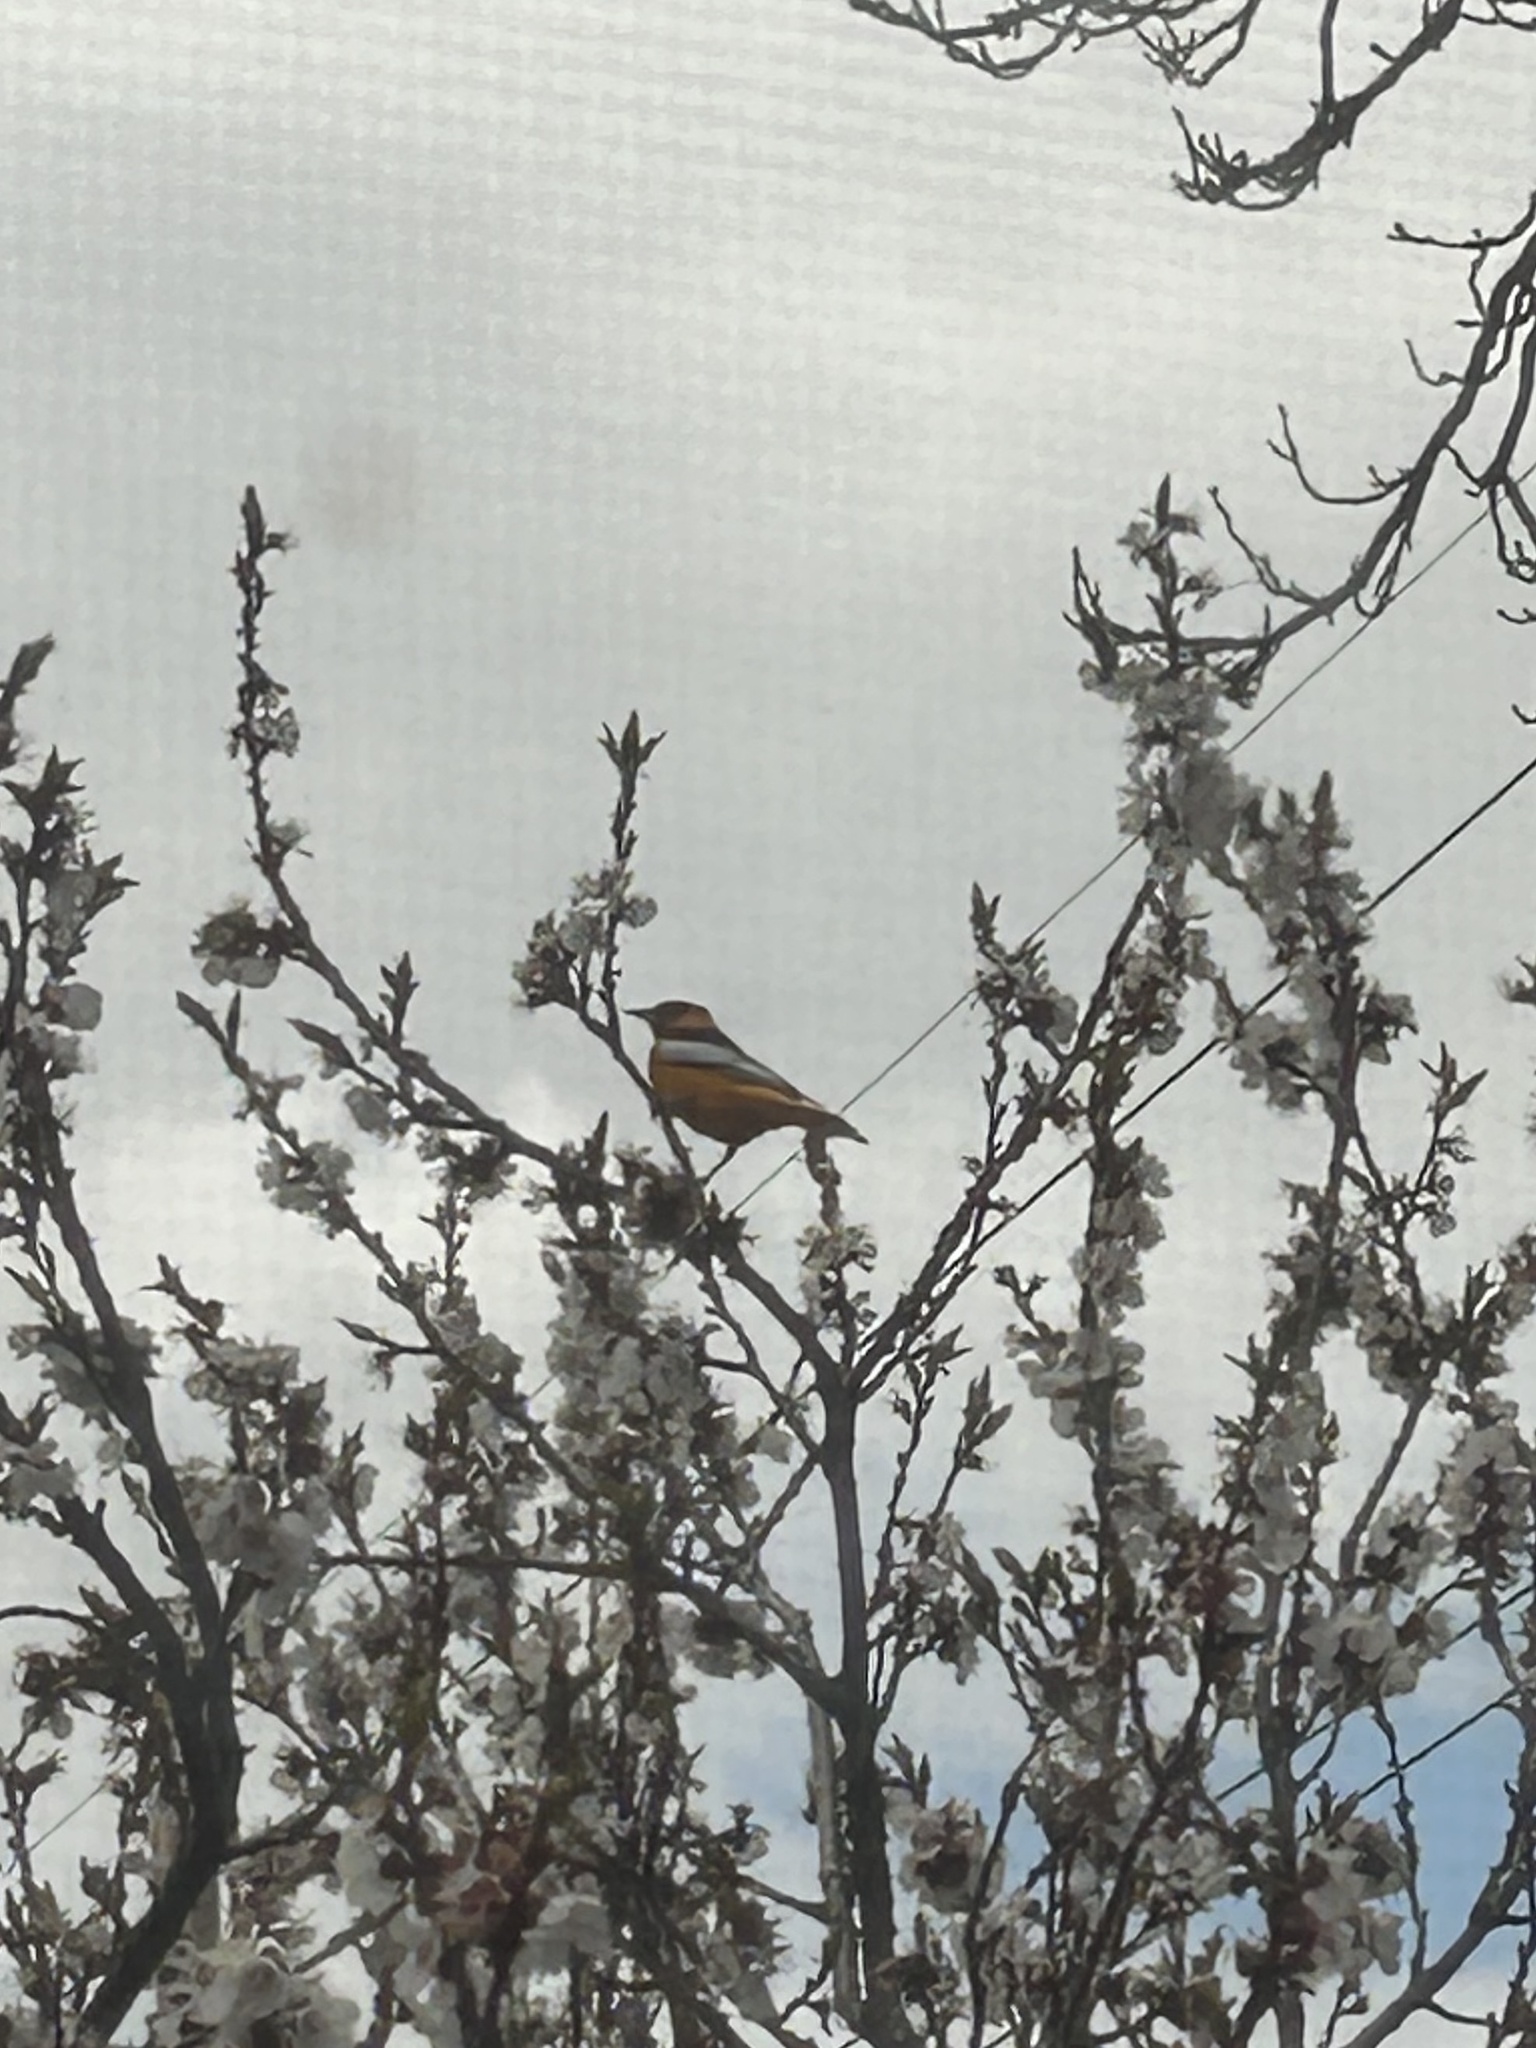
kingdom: Animalia
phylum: Chordata
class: Aves
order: Passeriformes
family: Icteridae
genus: Icterus
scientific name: Icterus bullockii
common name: Bullock's oriole
